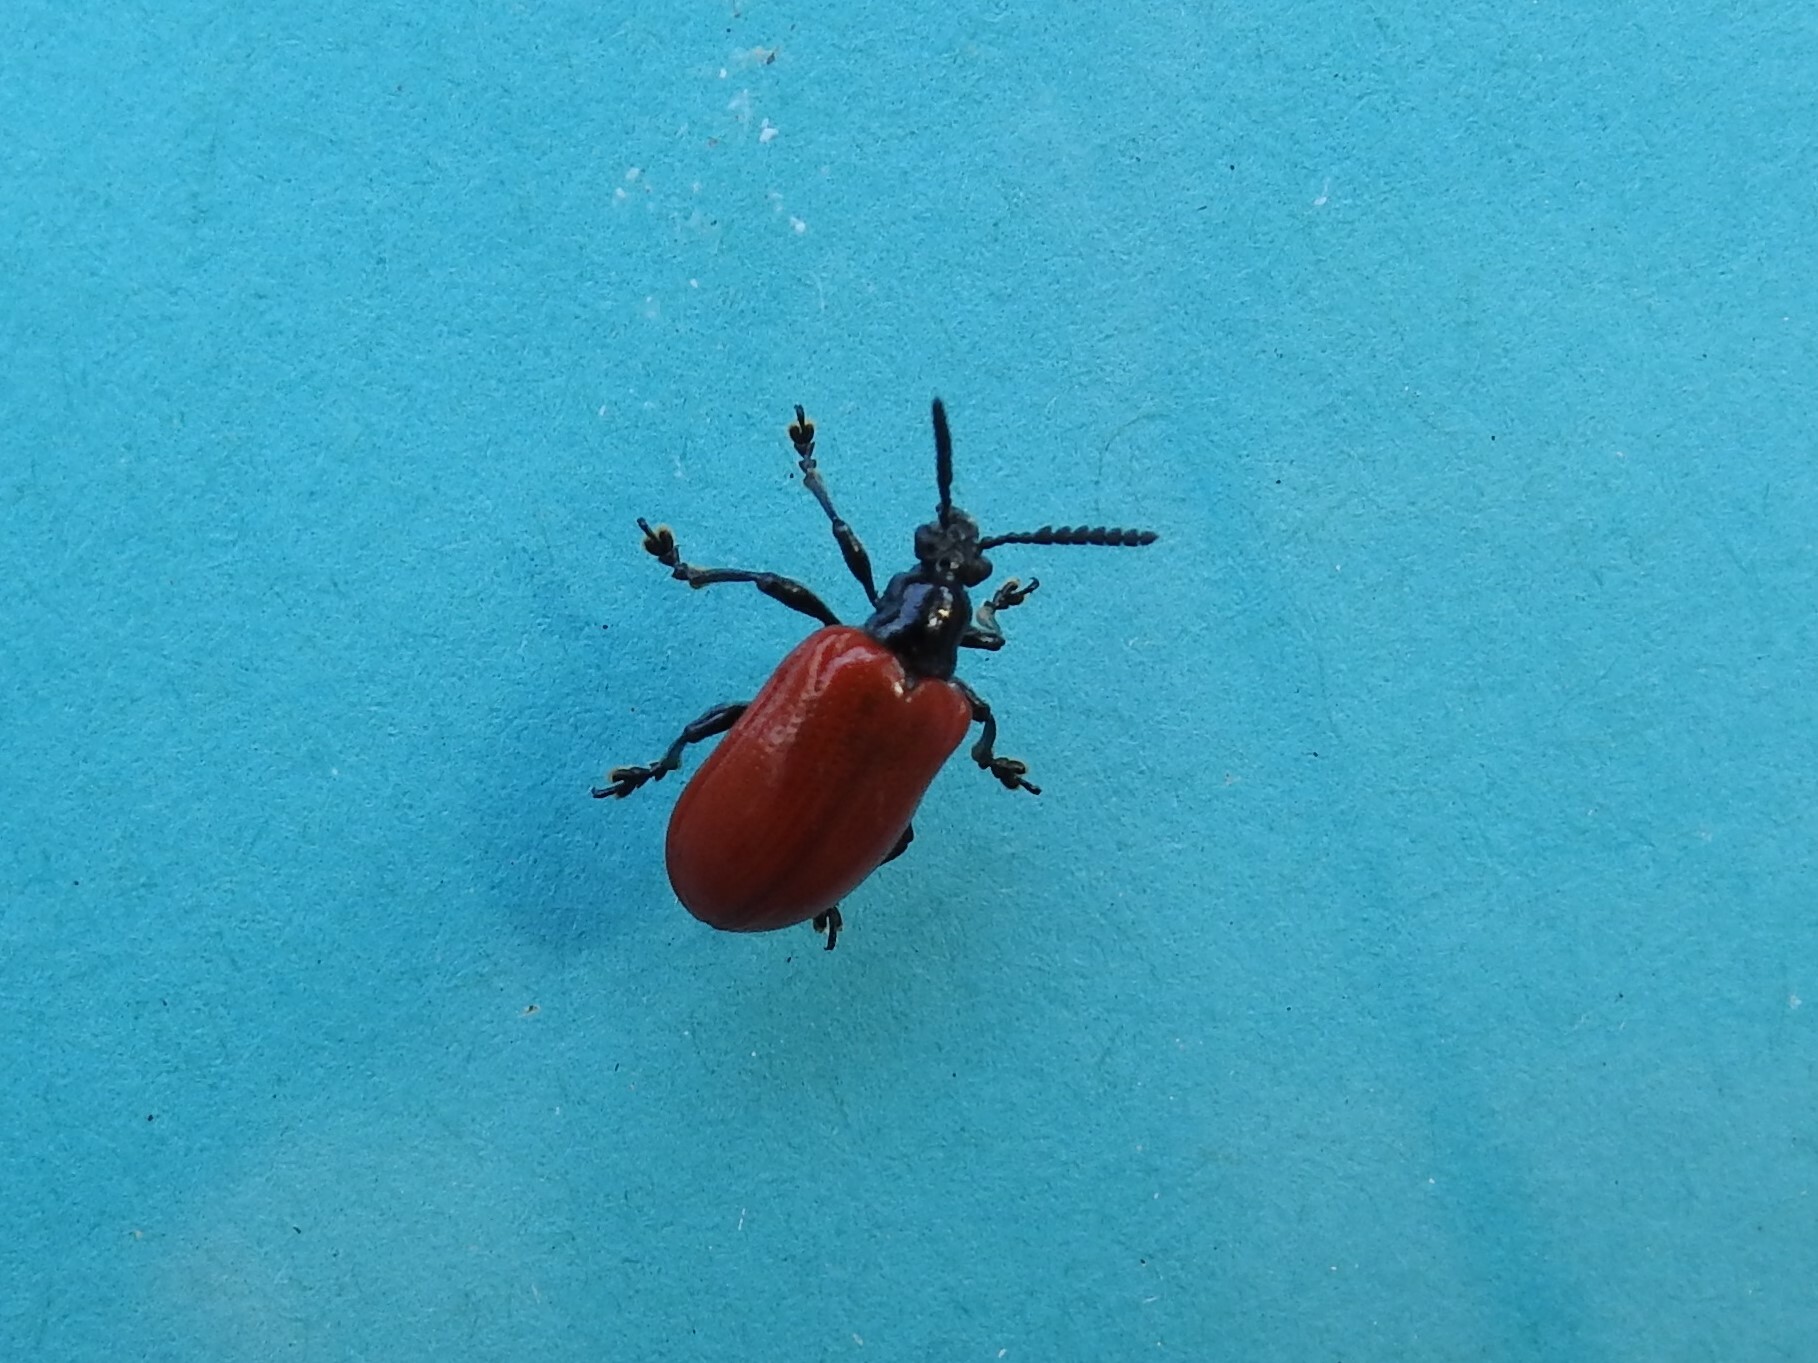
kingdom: Animalia
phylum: Arthropoda
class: Insecta
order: Coleoptera
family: Chrysomelidae
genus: Lilioceris
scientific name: Lilioceris cheni
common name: Leaf beetle
